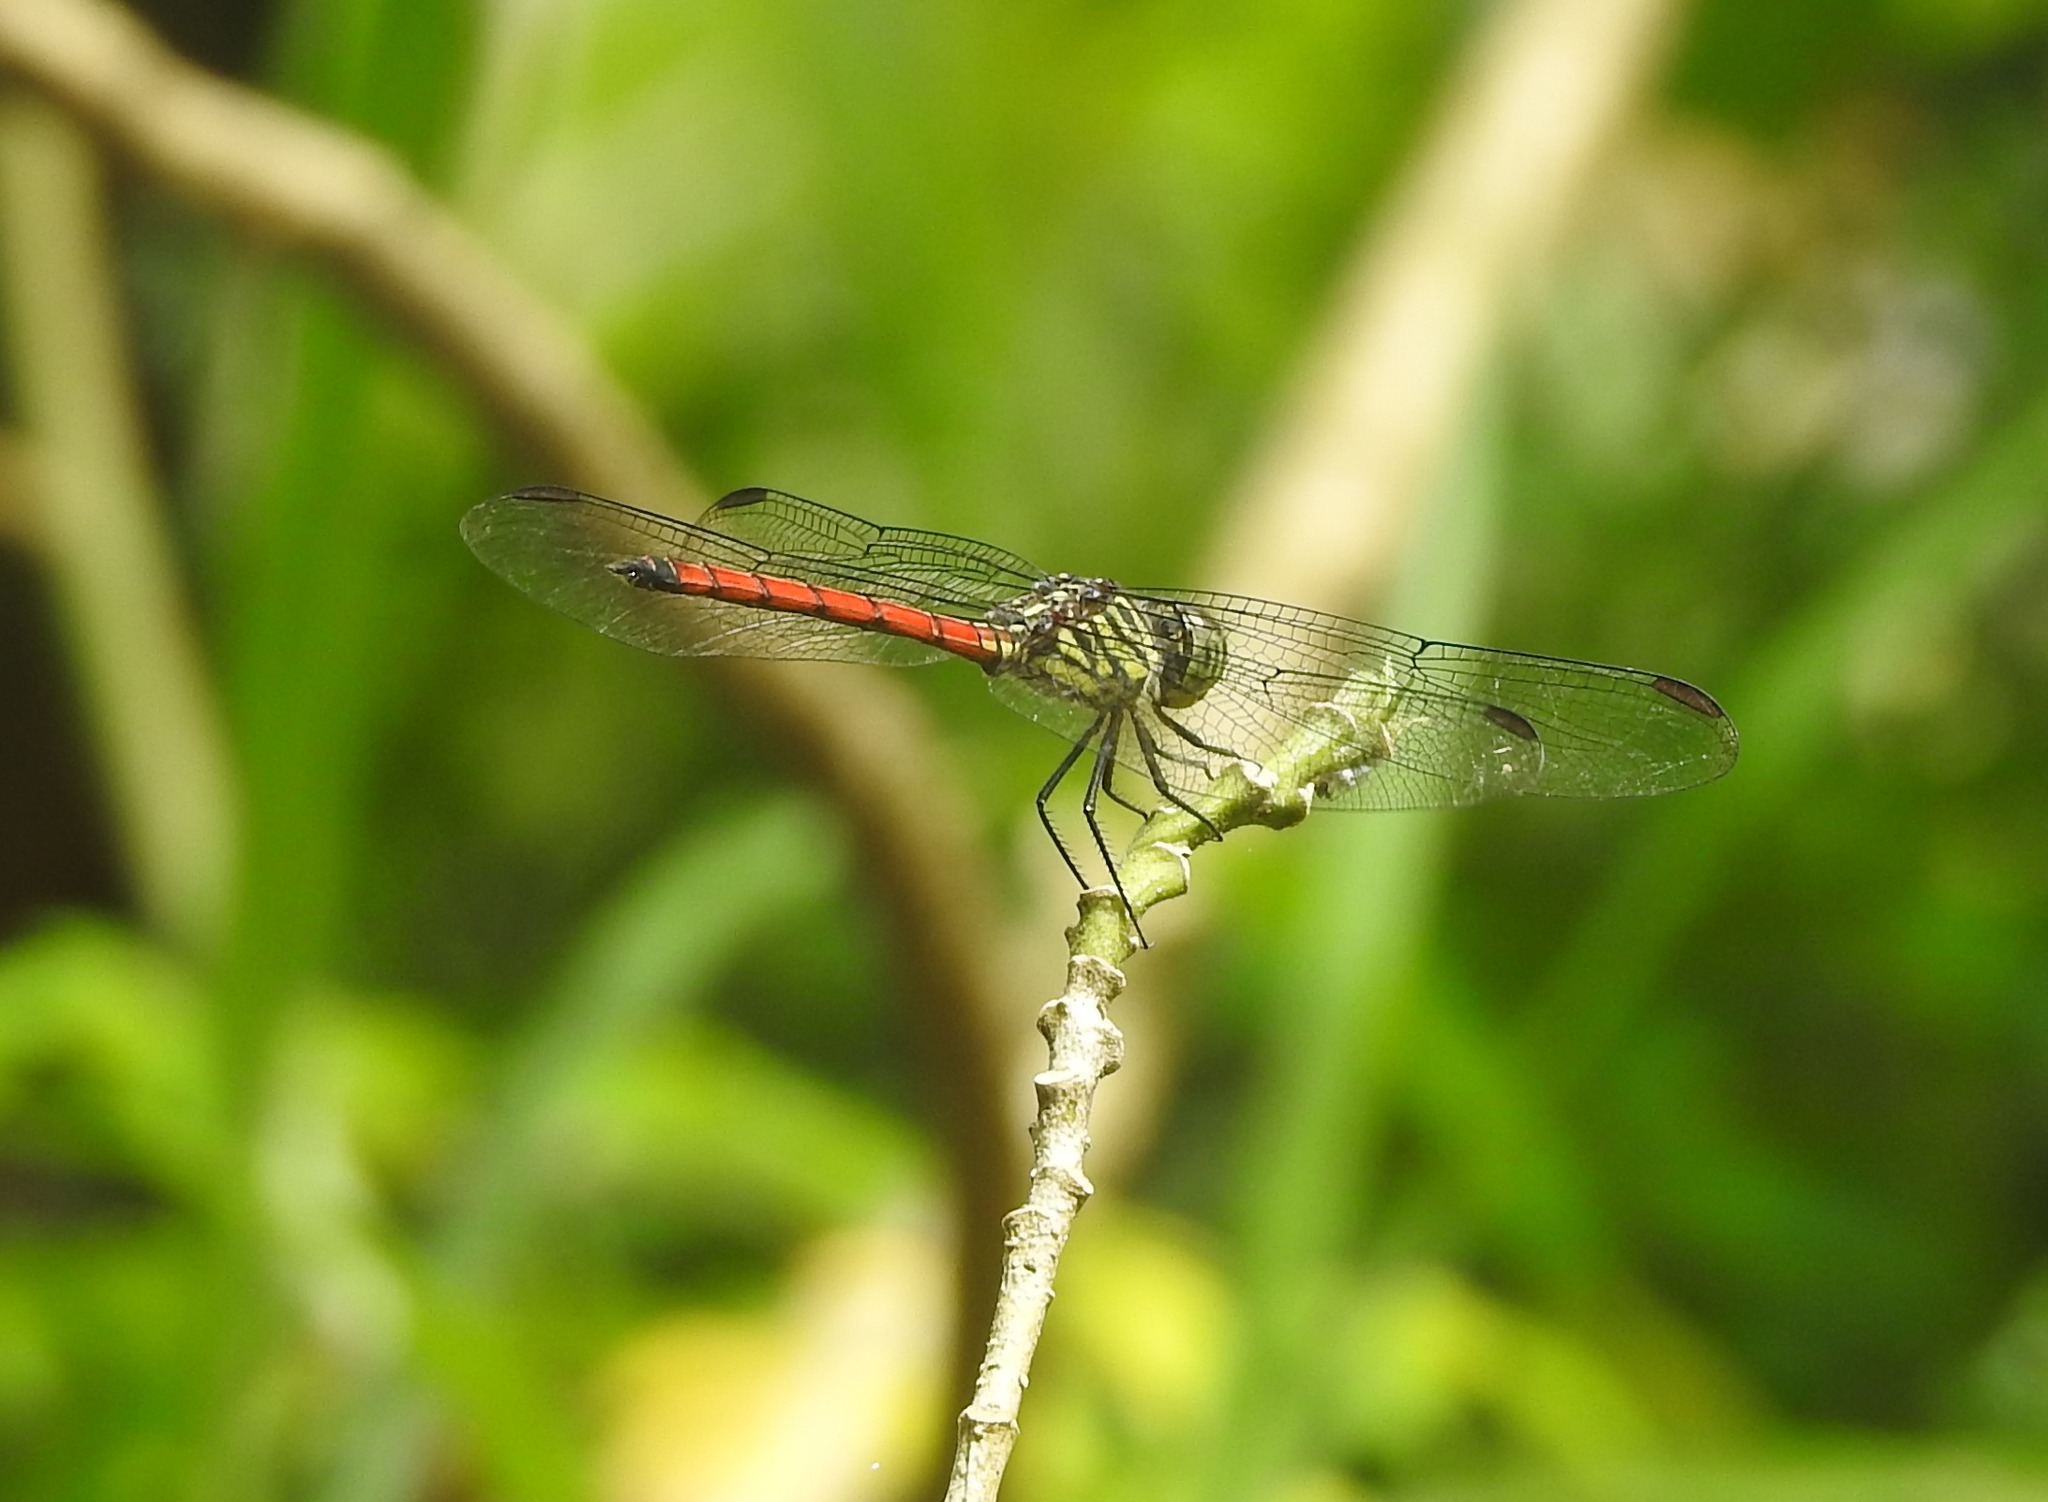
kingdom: Animalia
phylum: Arthropoda
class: Insecta
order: Odonata
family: Libellulidae
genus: Lathrecista
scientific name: Lathrecista asiatica
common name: Scarlet grenadier
